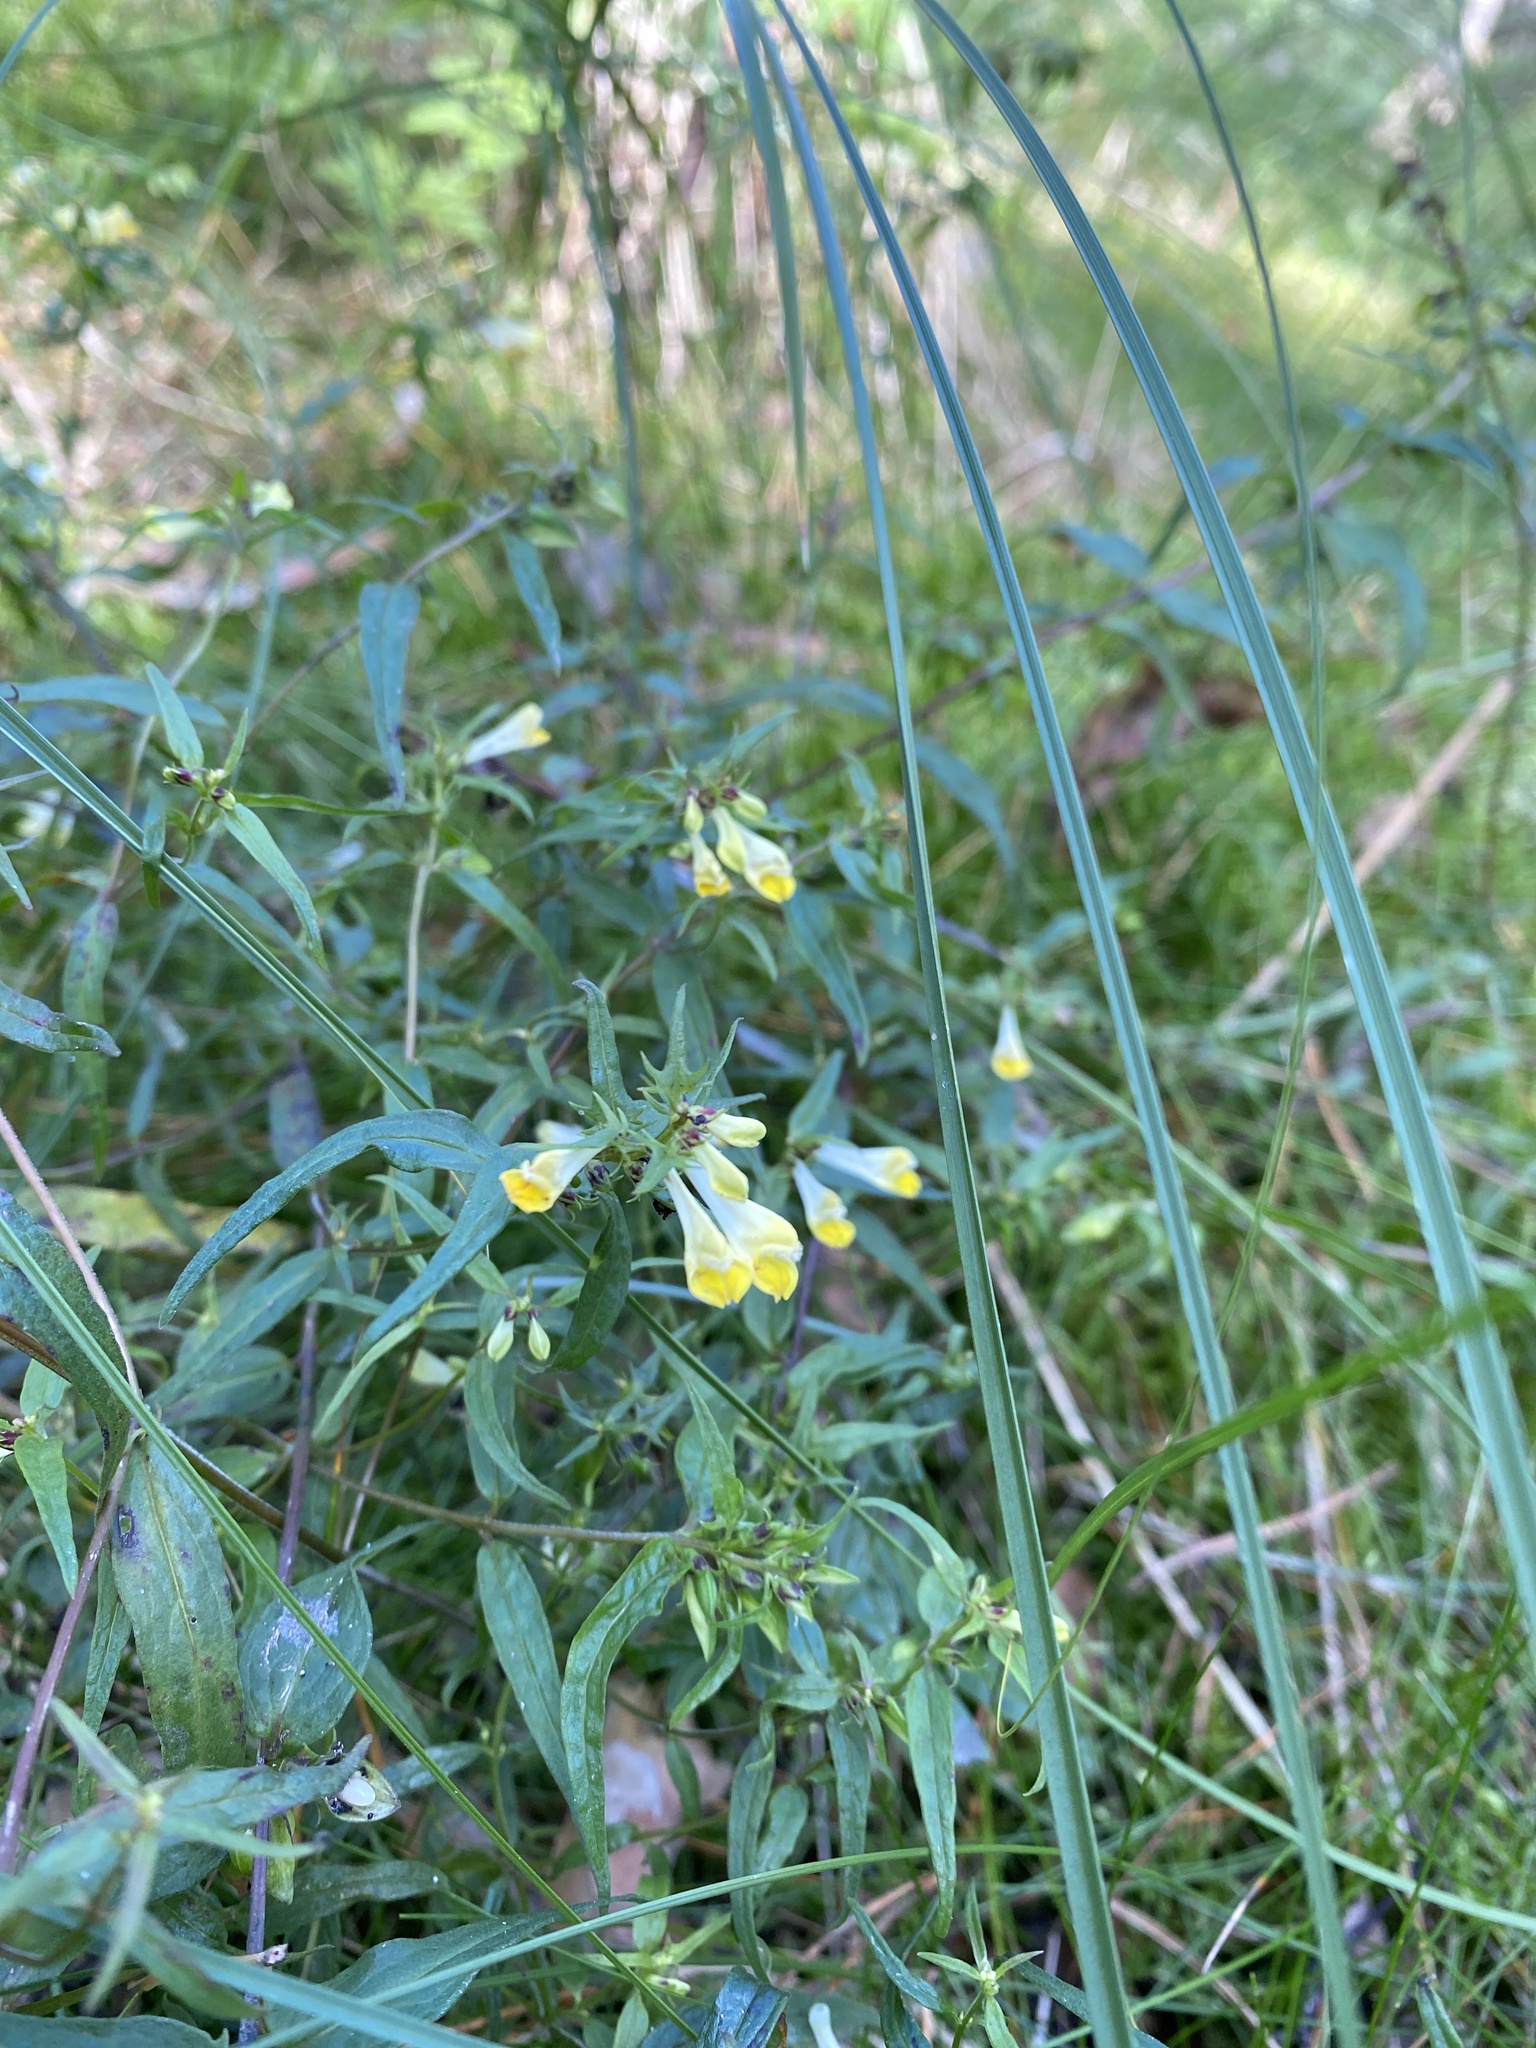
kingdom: Plantae
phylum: Tracheophyta
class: Magnoliopsida
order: Lamiales
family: Orobanchaceae
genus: Melampyrum
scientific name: Melampyrum pratense
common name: Common cow-wheat
